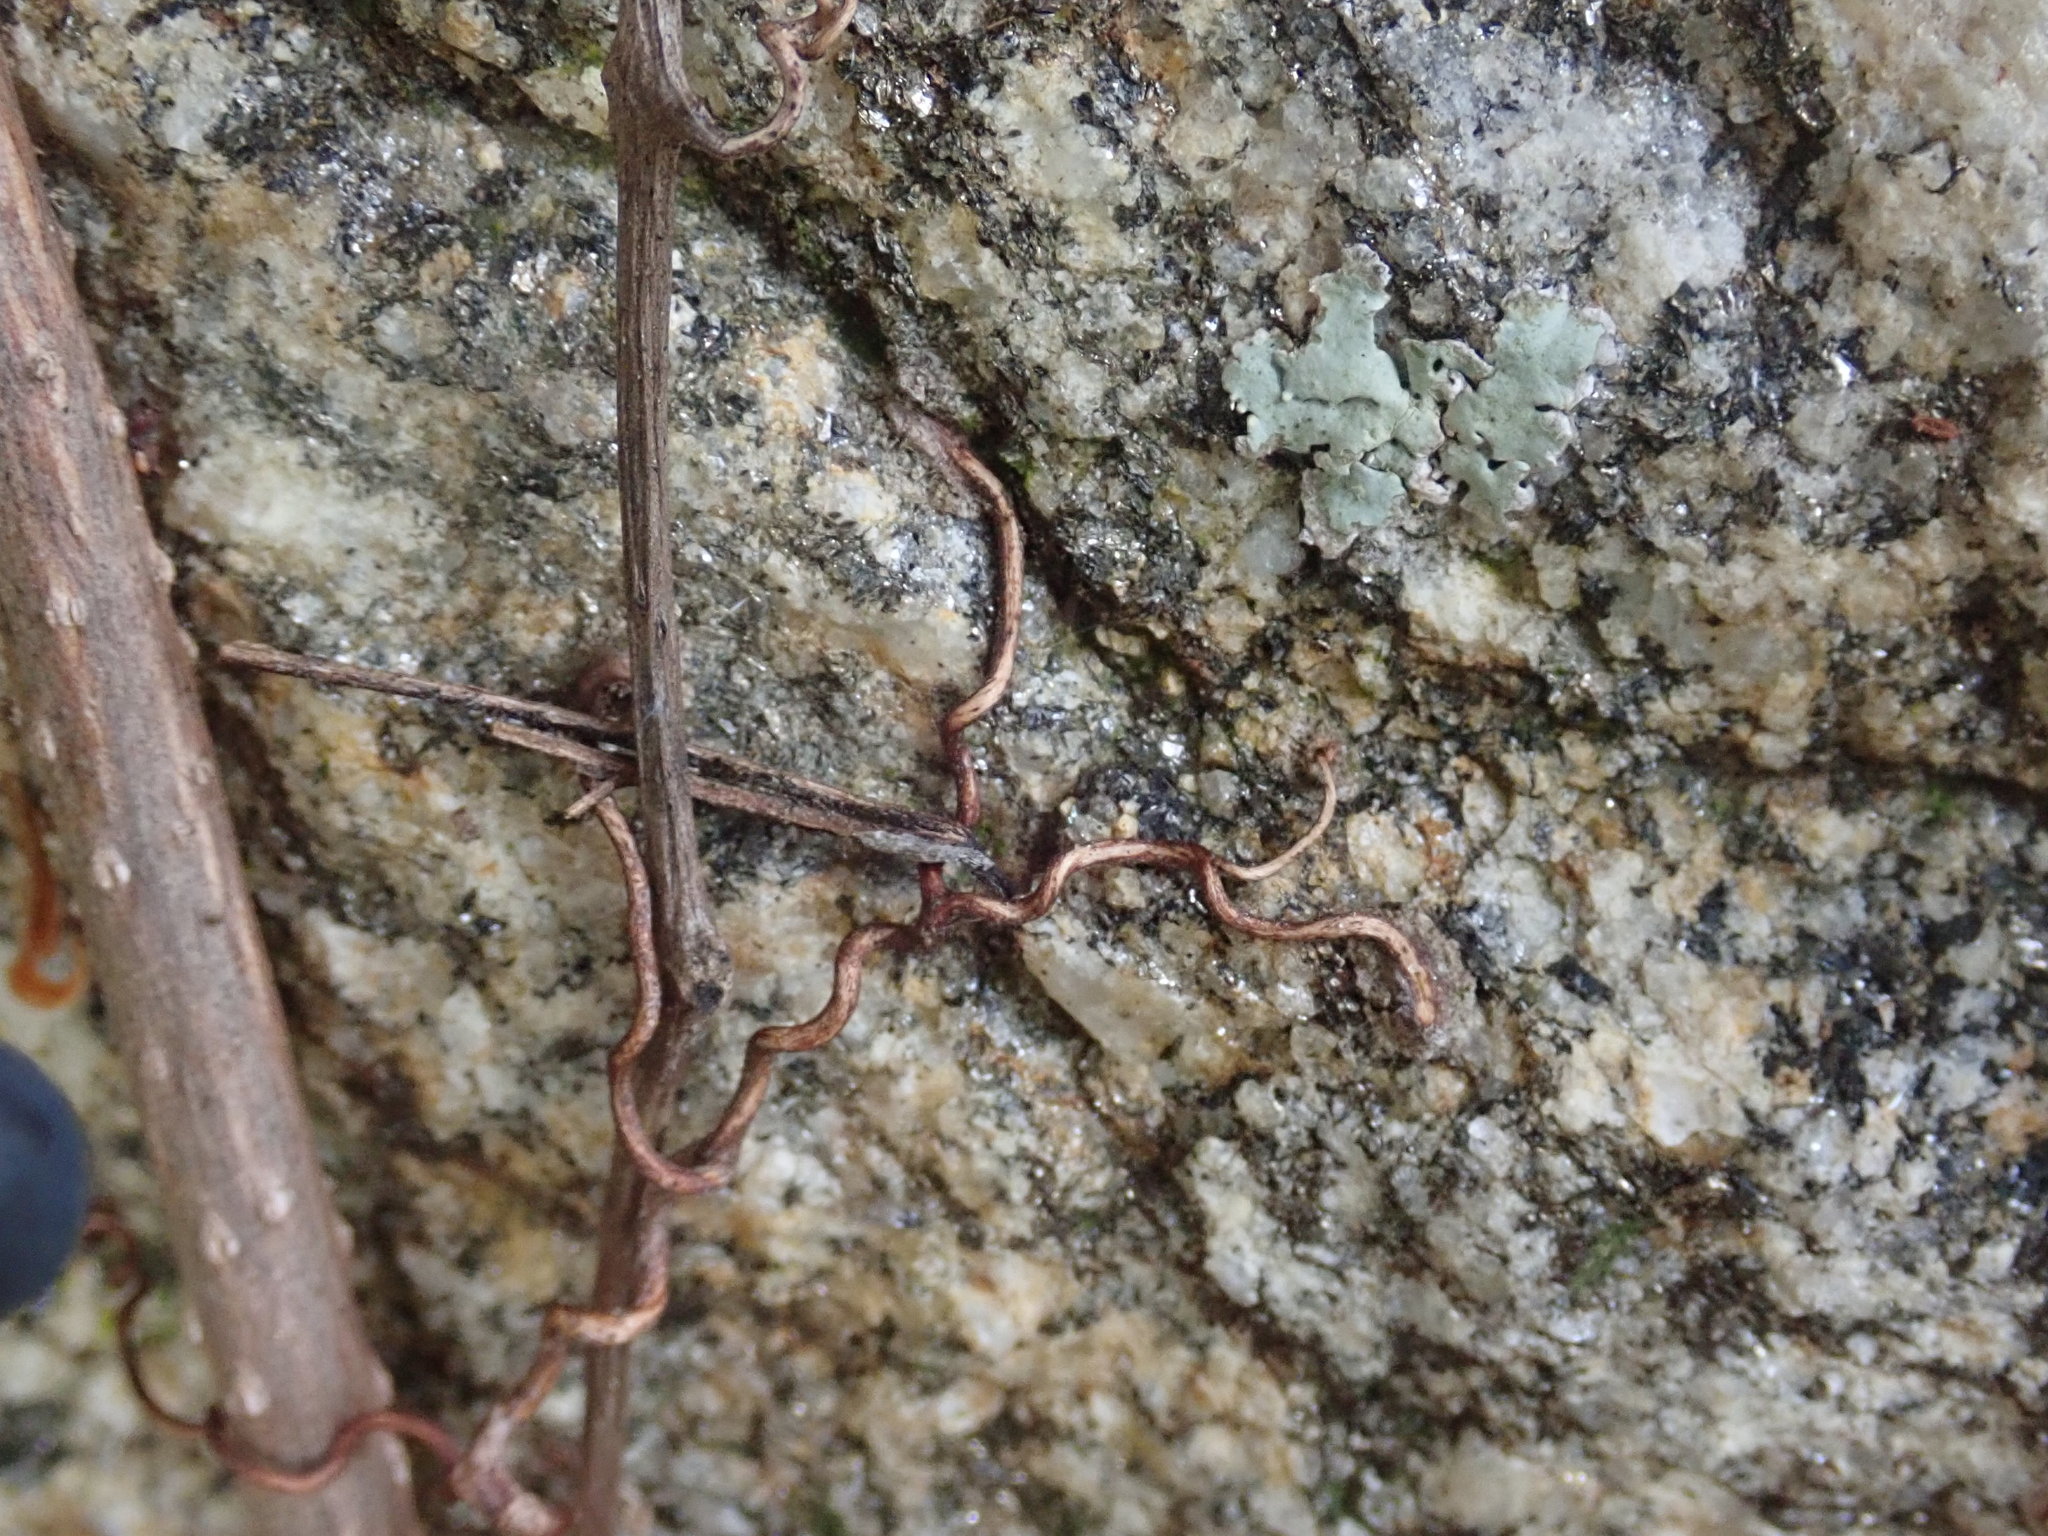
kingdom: Plantae
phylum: Tracheophyta
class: Magnoliopsida
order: Vitales
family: Vitaceae
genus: Parthenocissus
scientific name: Parthenocissus quinquefolia
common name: Virginia-creeper
